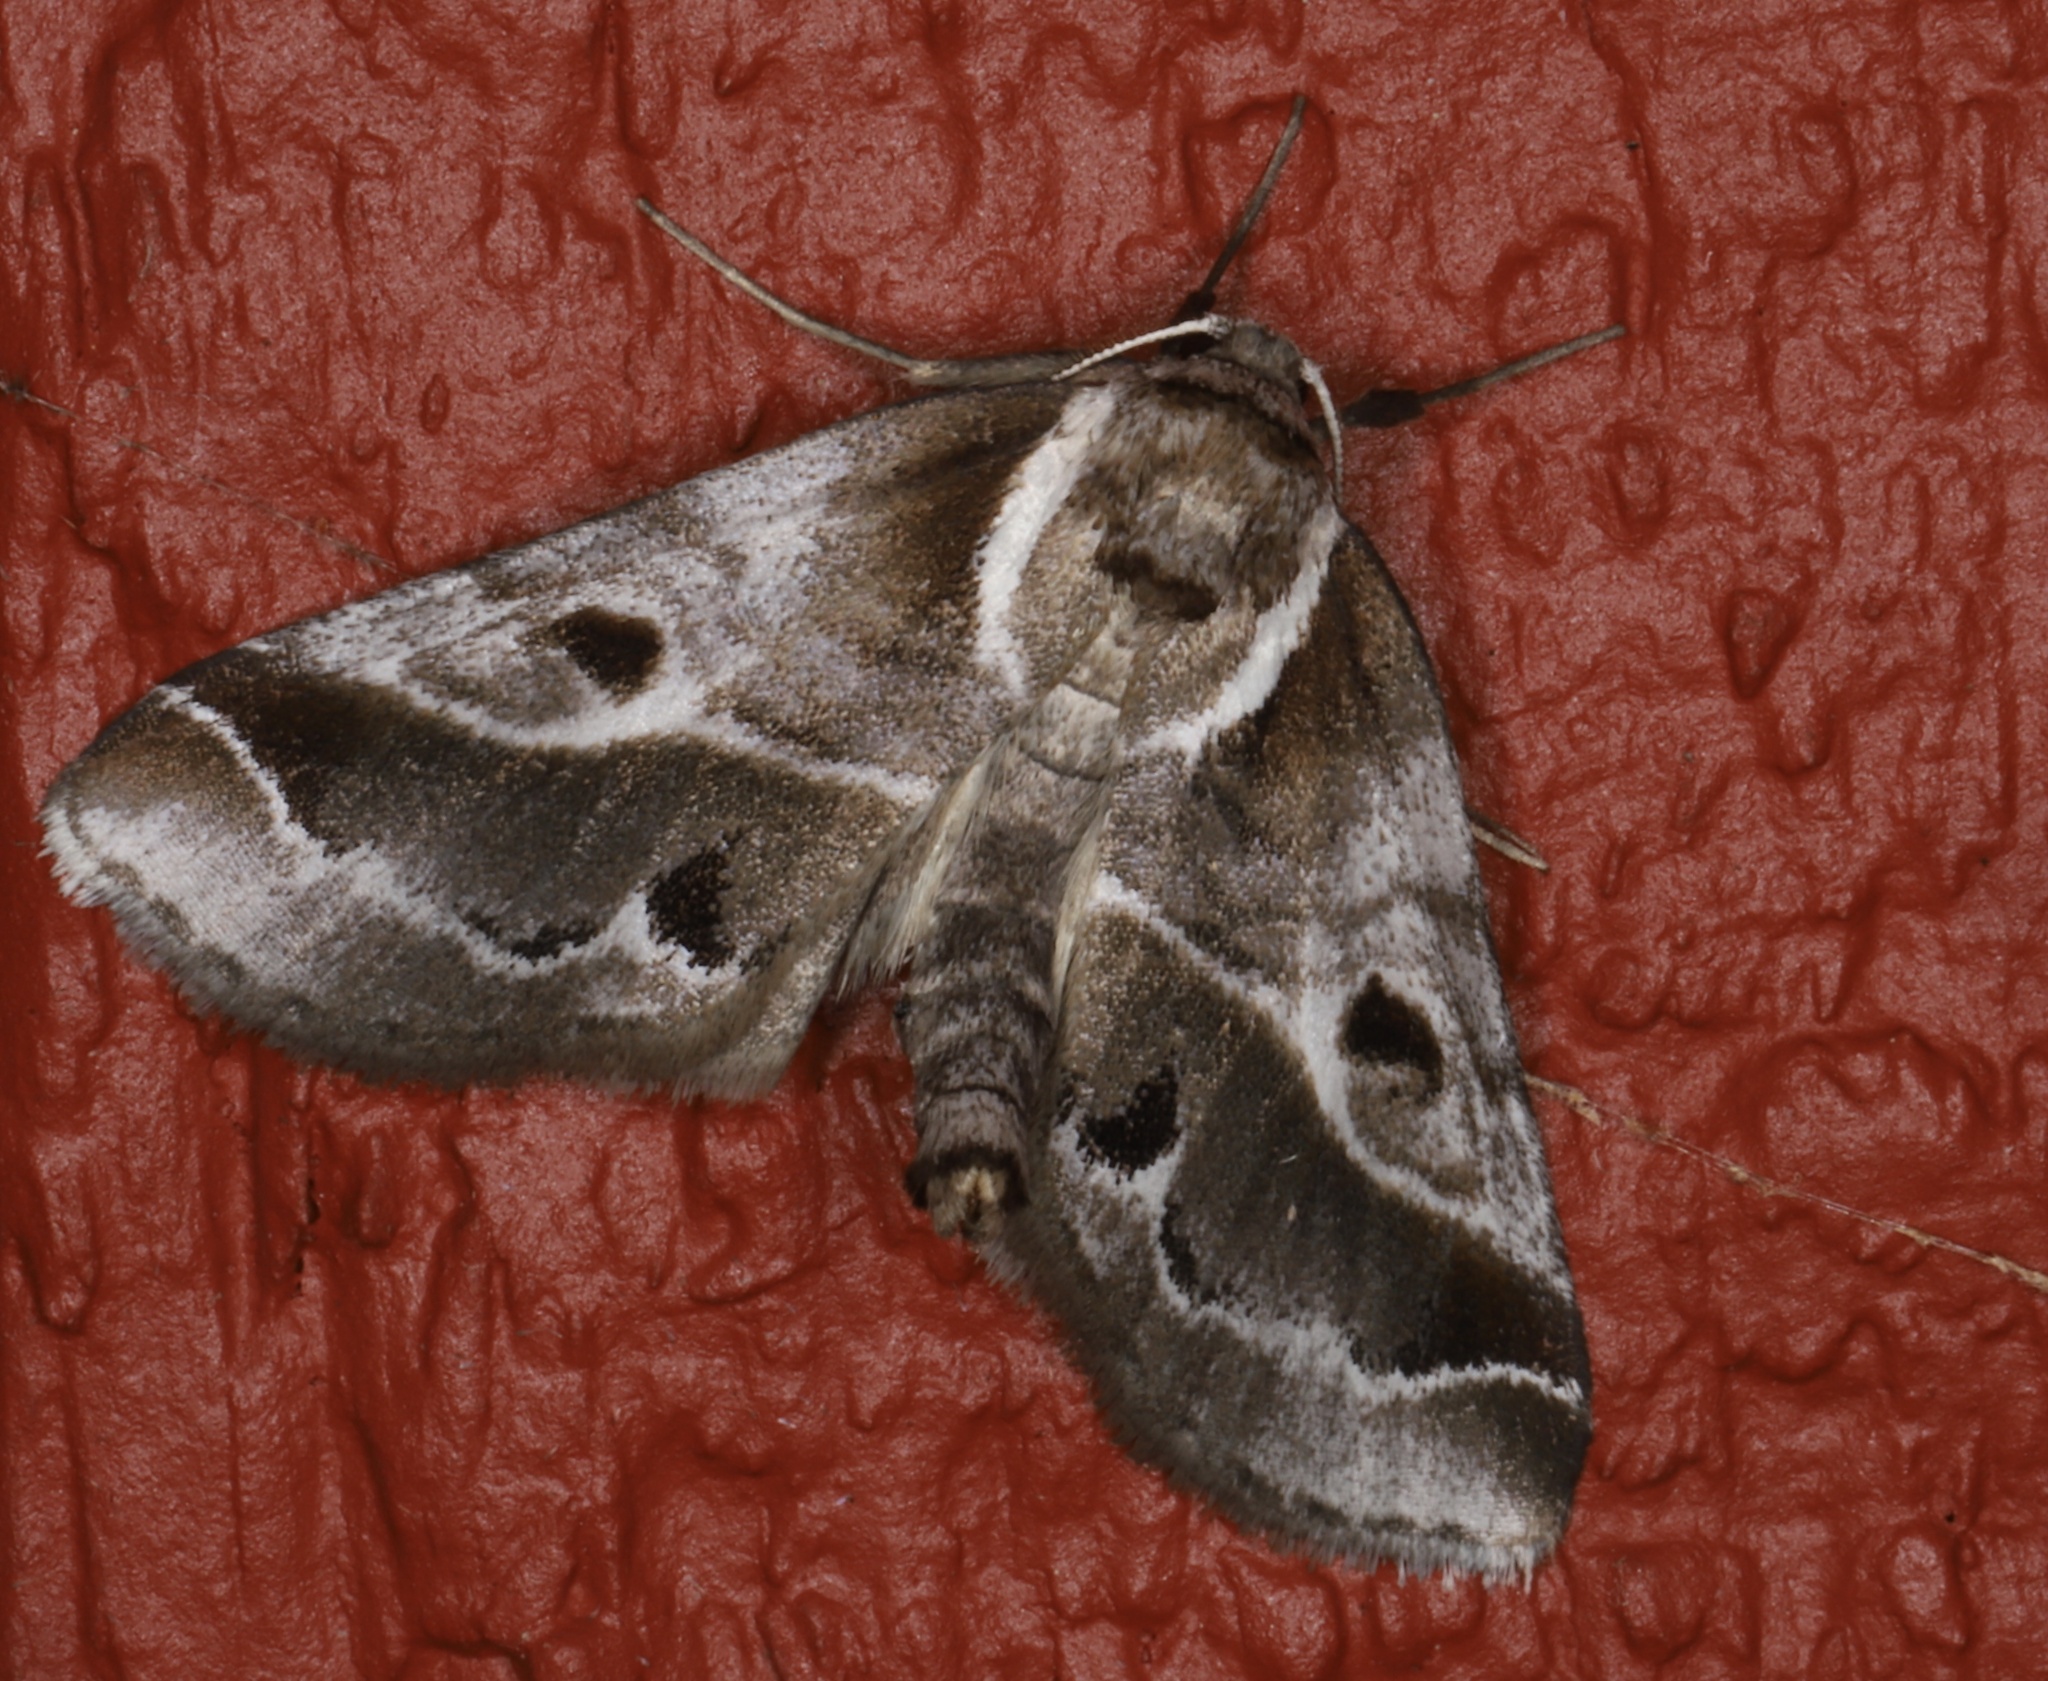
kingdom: Animalia
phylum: Arthropoda
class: Insecta
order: Lepidoptera
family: Nolidae
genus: Baileya
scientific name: Baileya doubledayi
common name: Doubleday's baileya moth
